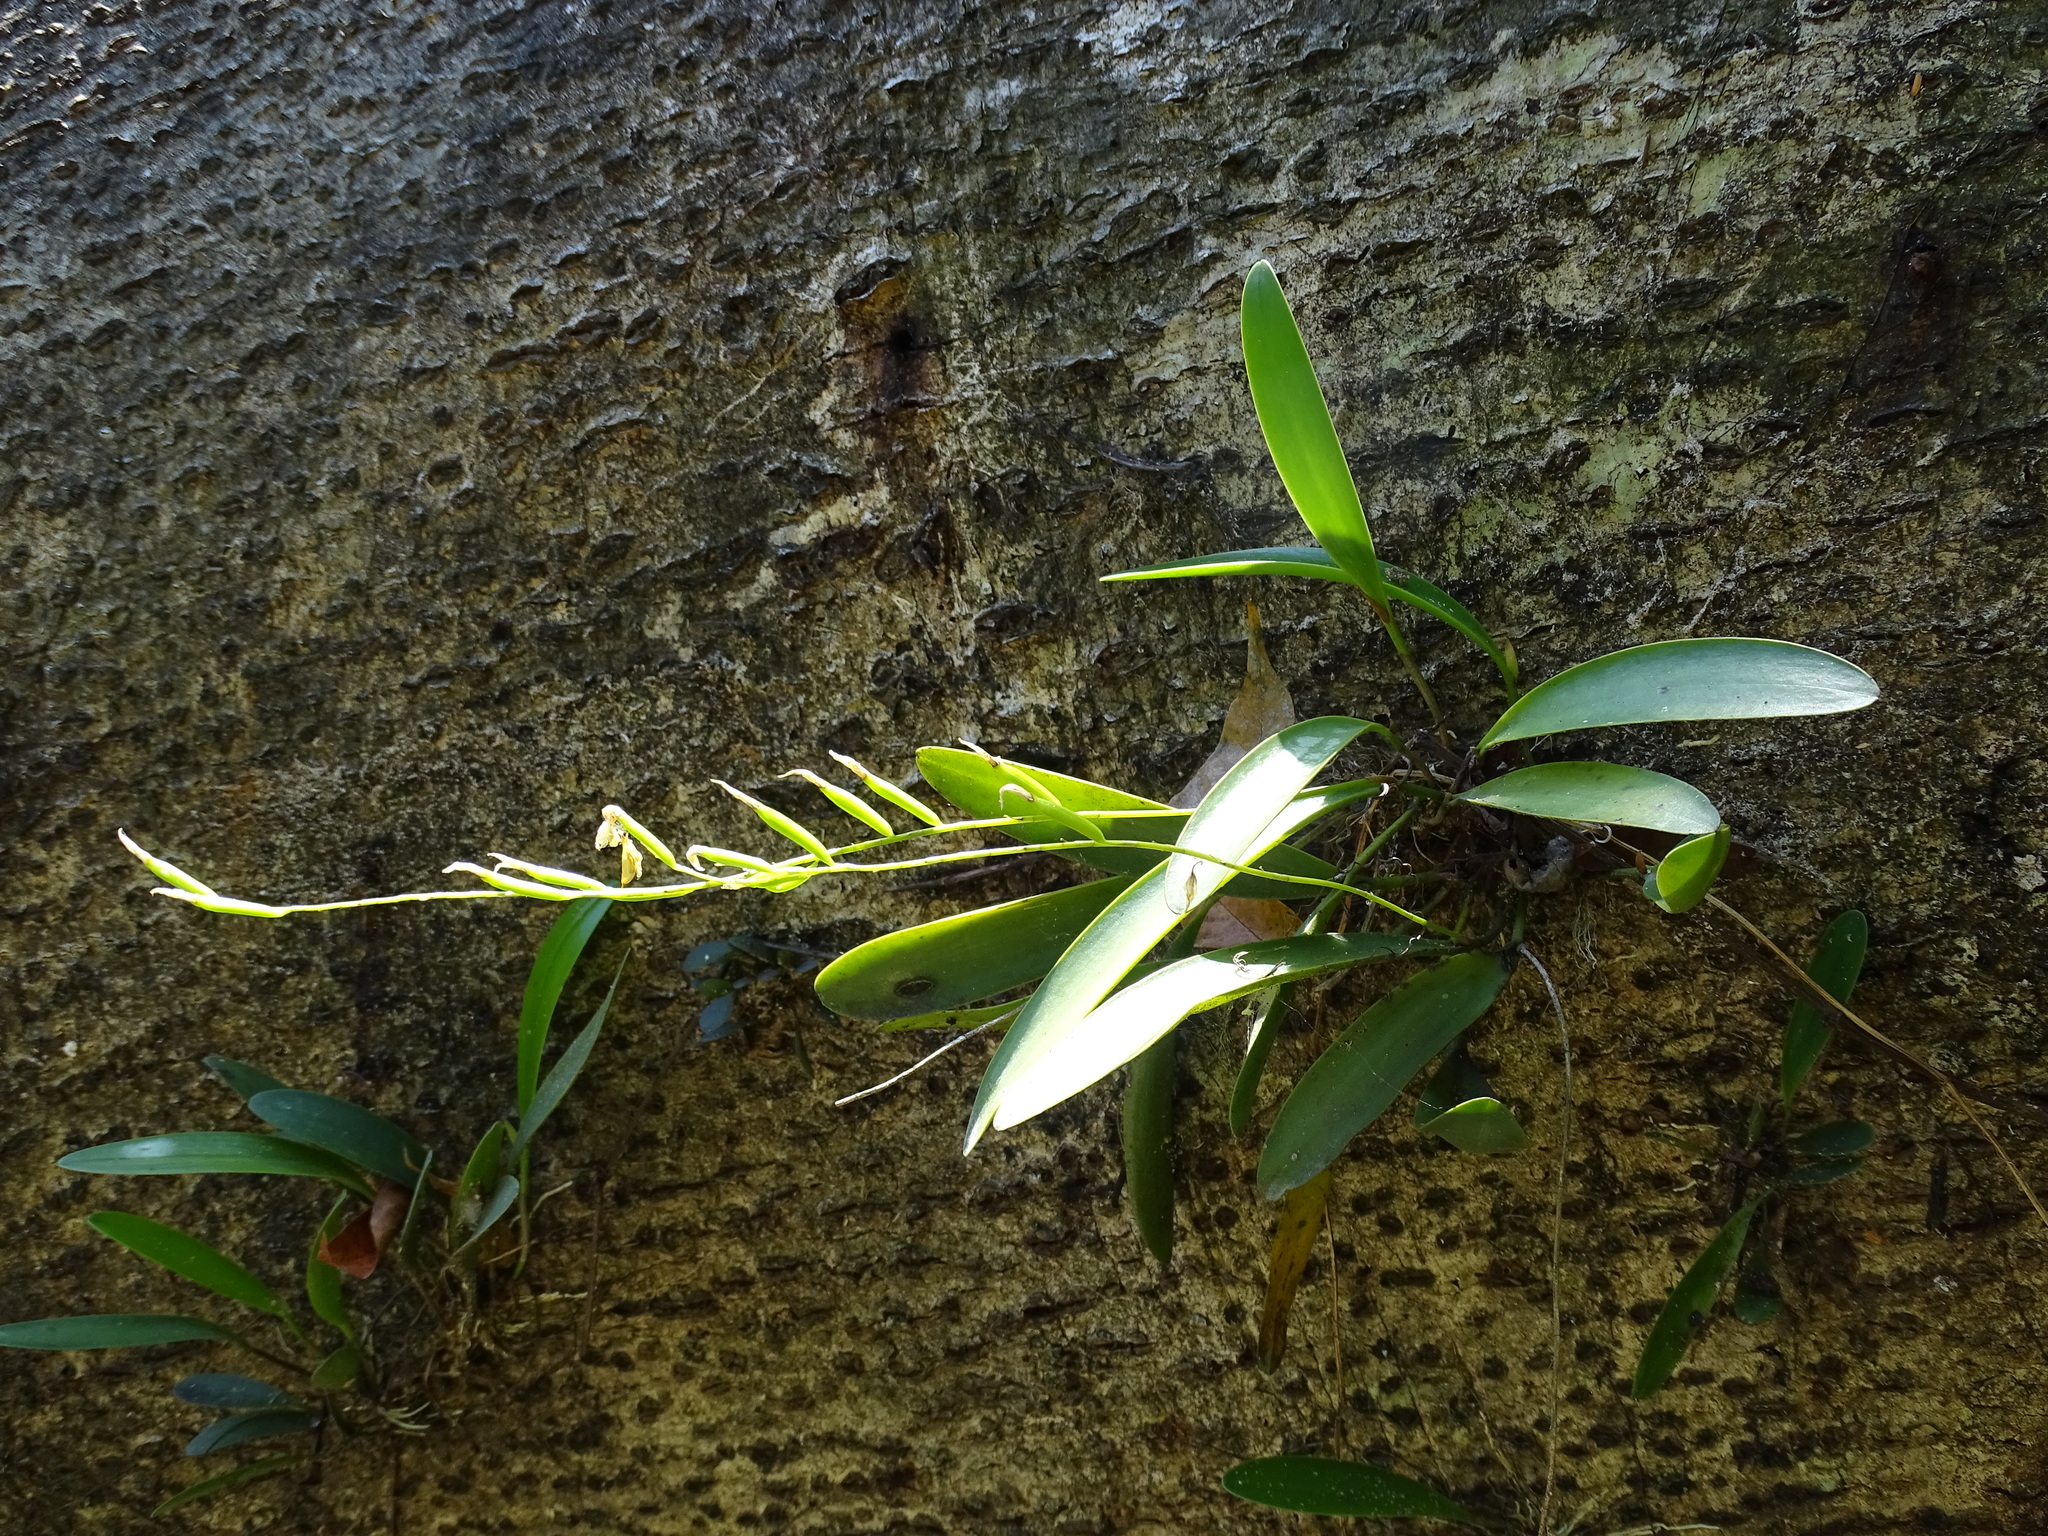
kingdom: Plantae
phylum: Tracheophyta
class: Liliopsida
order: Asparagales
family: Orchidaceae
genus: Pleurothallis
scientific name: Pleurothallis quadrifida
